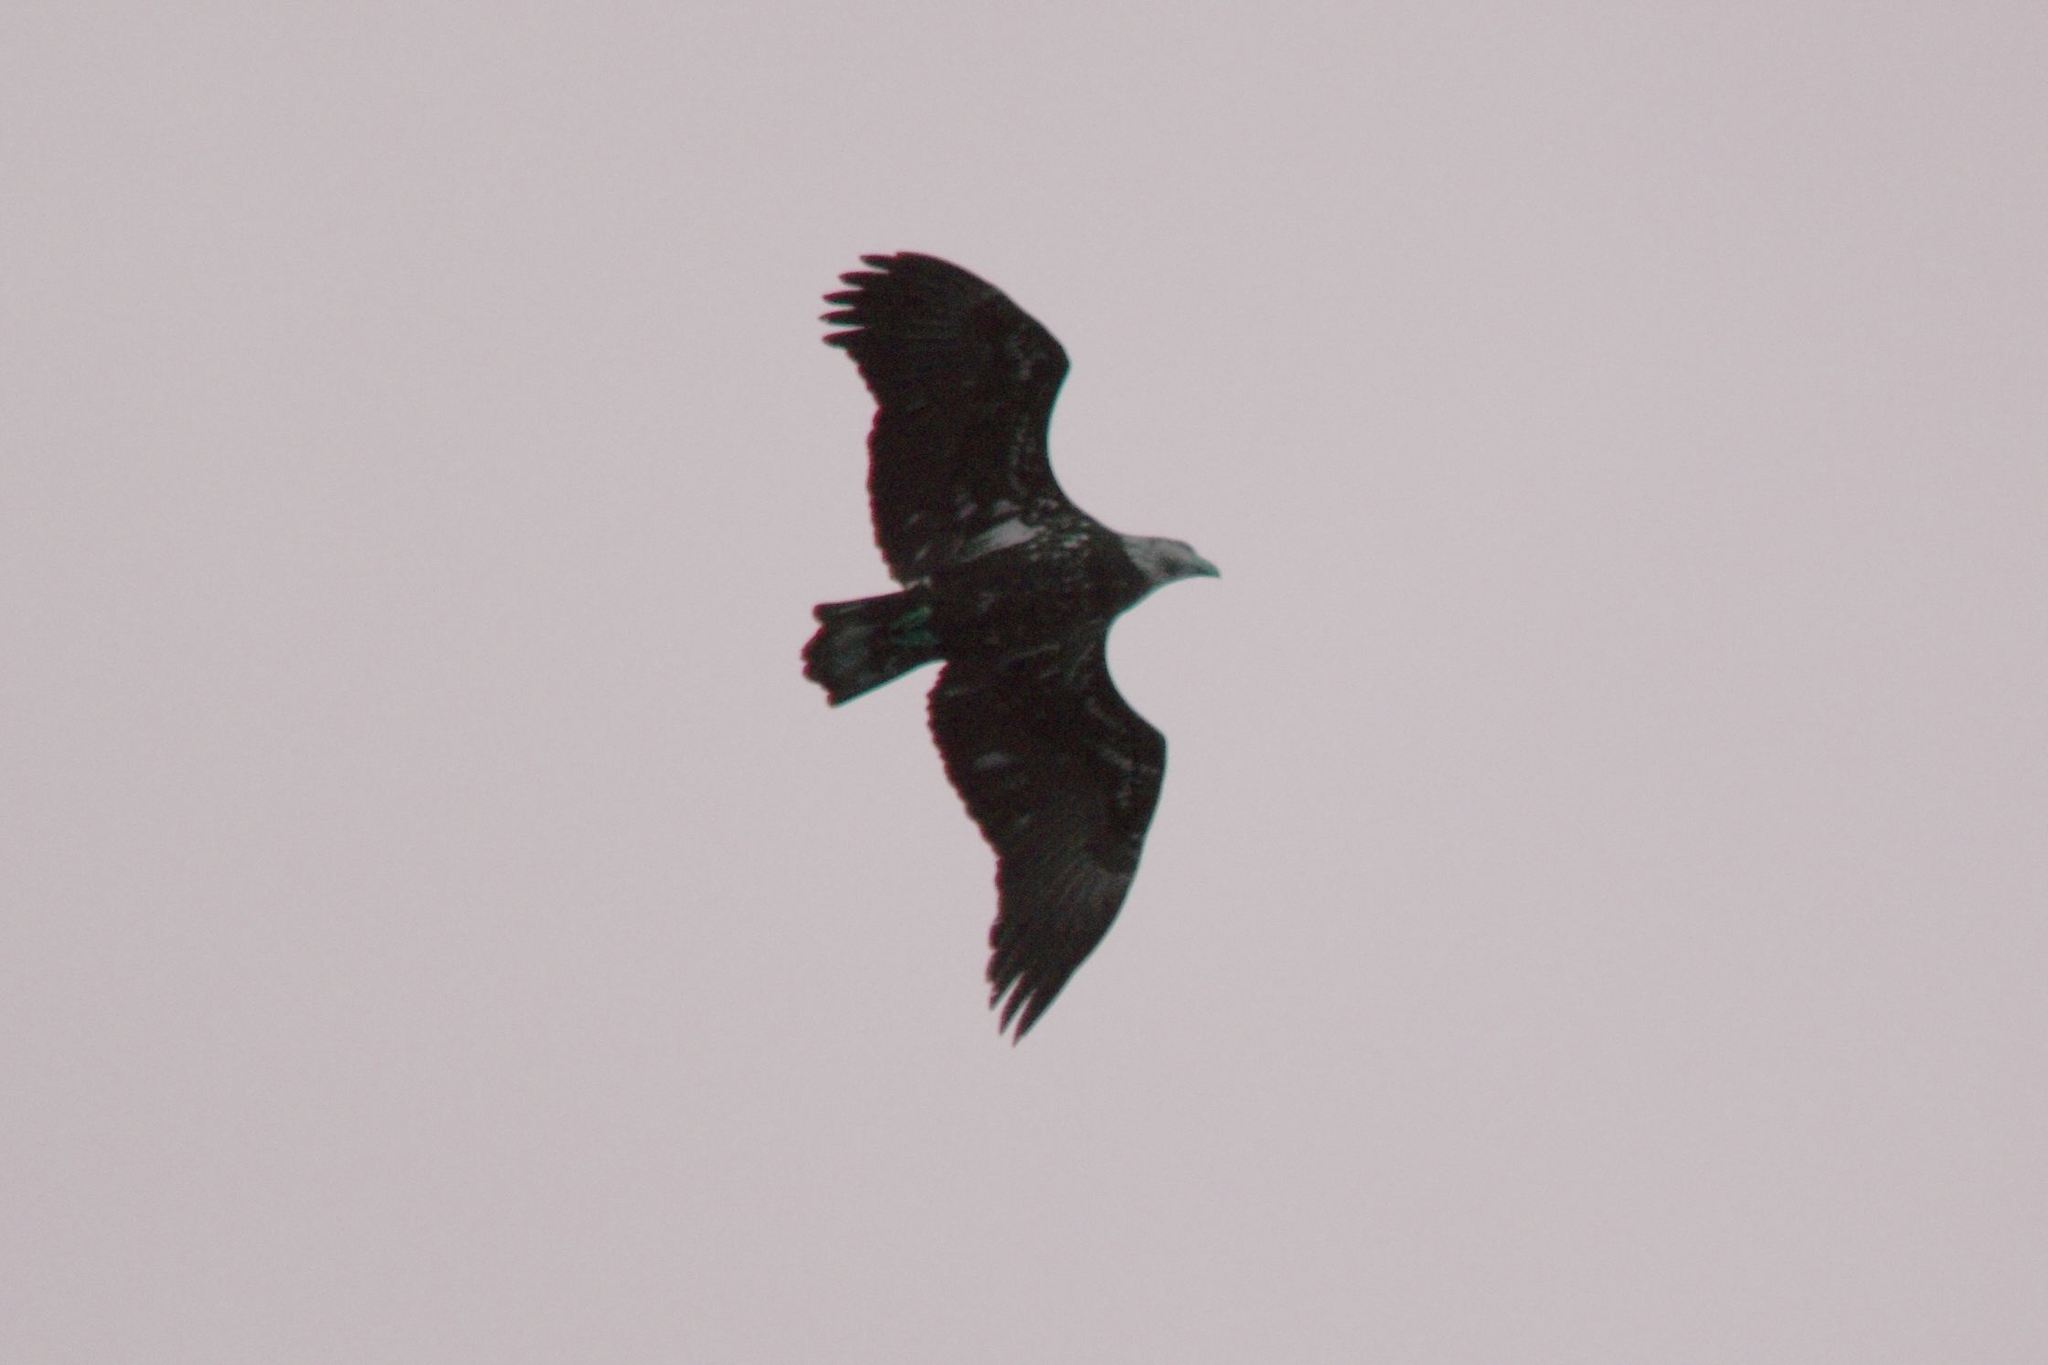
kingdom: Animalia
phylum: Chordata
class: Aves
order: Accipitriformes
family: Accipitridae
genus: Haliaeetus
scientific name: Haliaeetus leucocephalus
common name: Bald eagle
